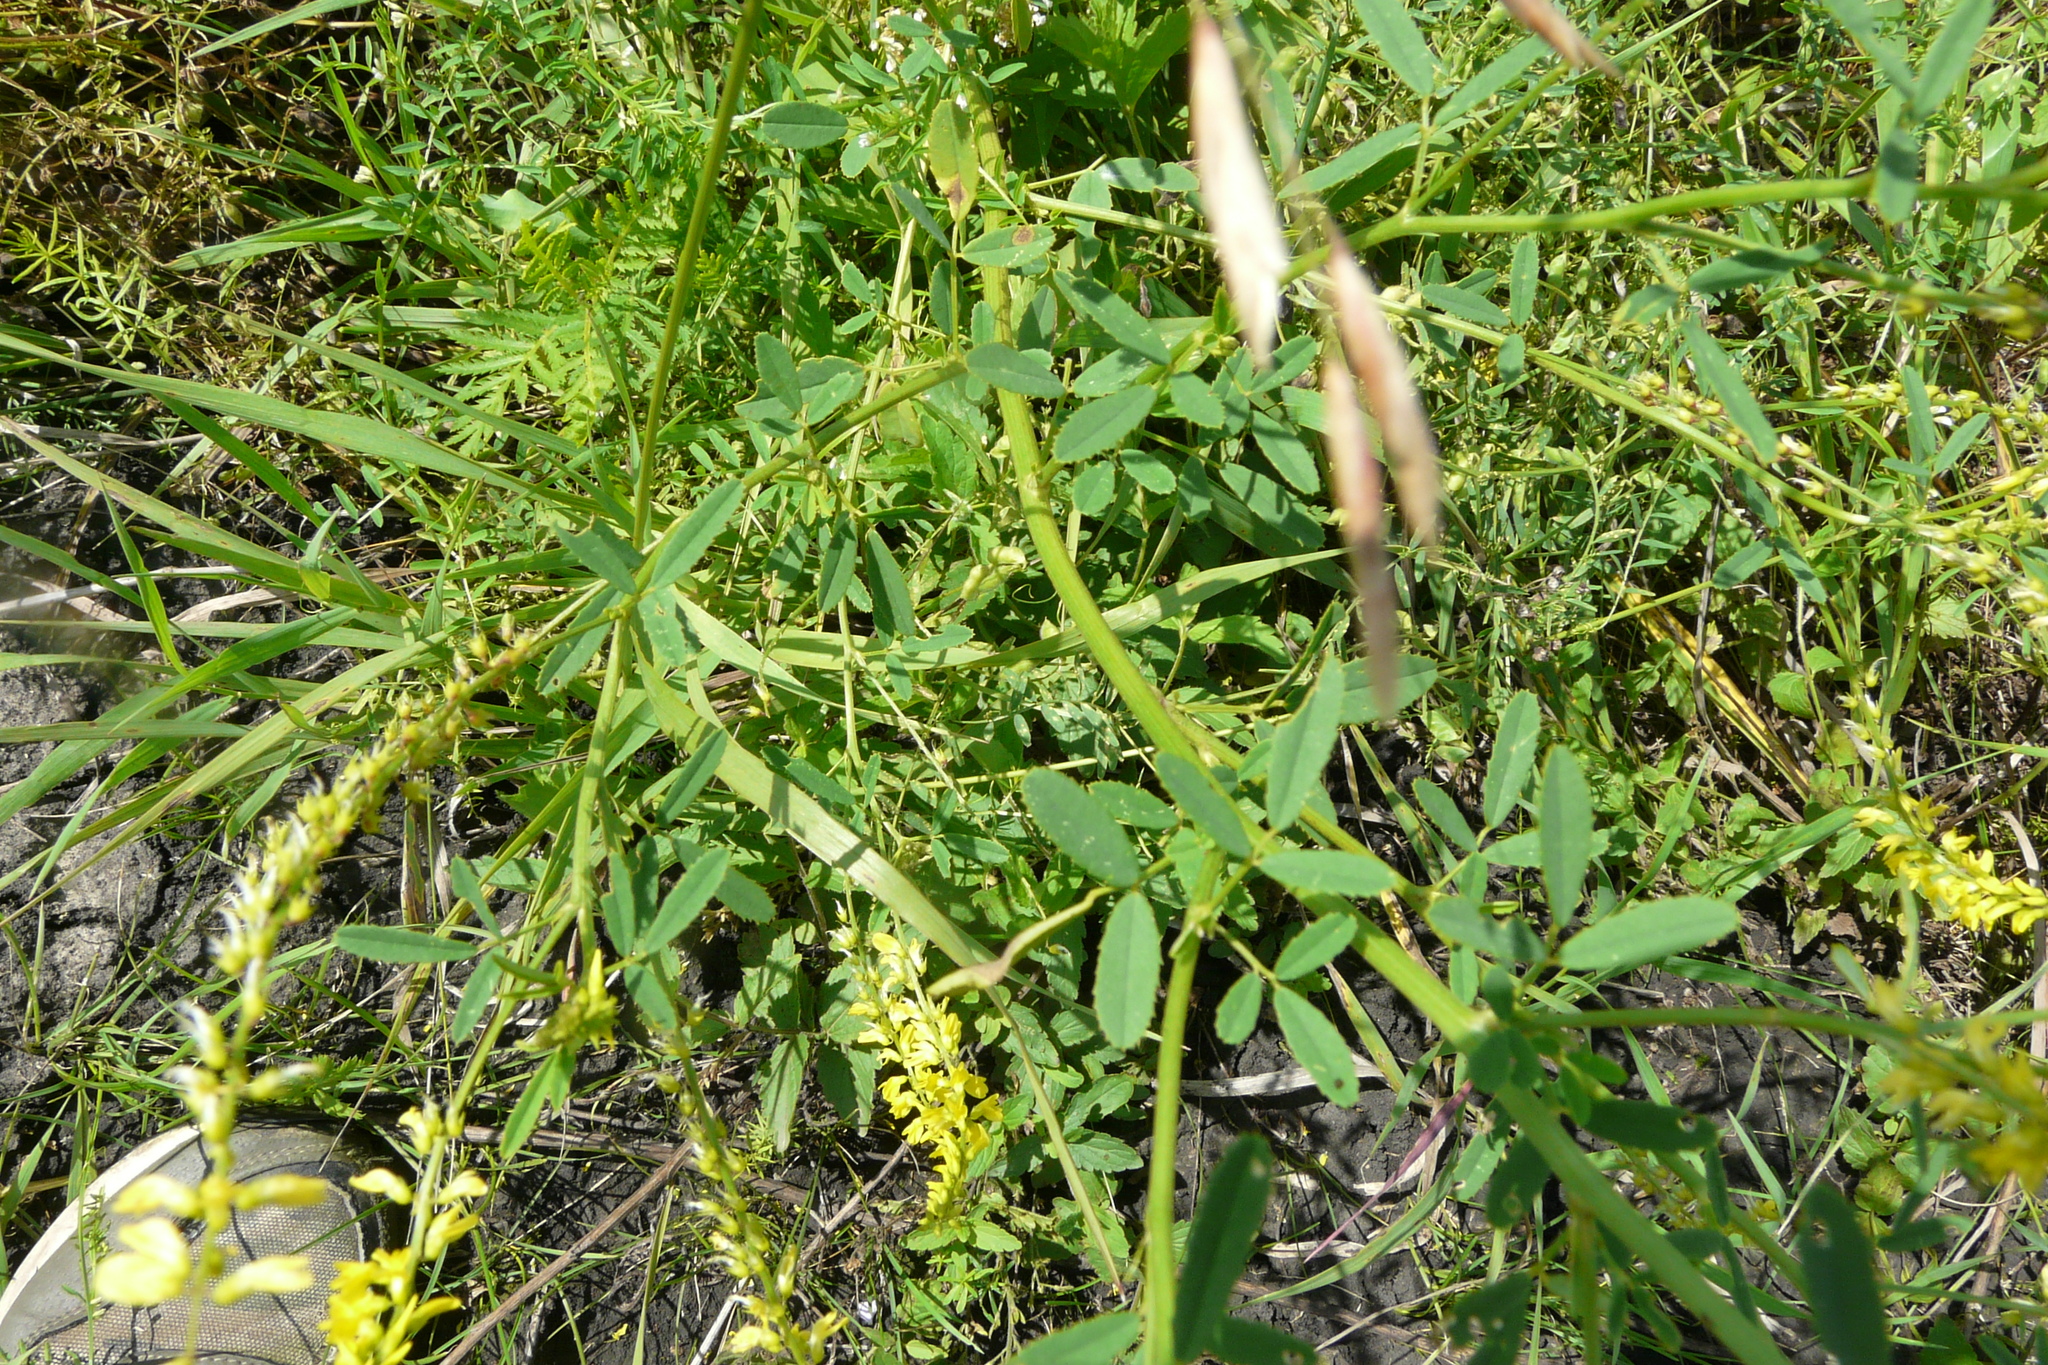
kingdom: Plantae
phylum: Tracheophyta
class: Magnoliopsida
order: Fabales
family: Fabaceae
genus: Melilotus
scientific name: Melilotus officinalis
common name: Sweetclover
